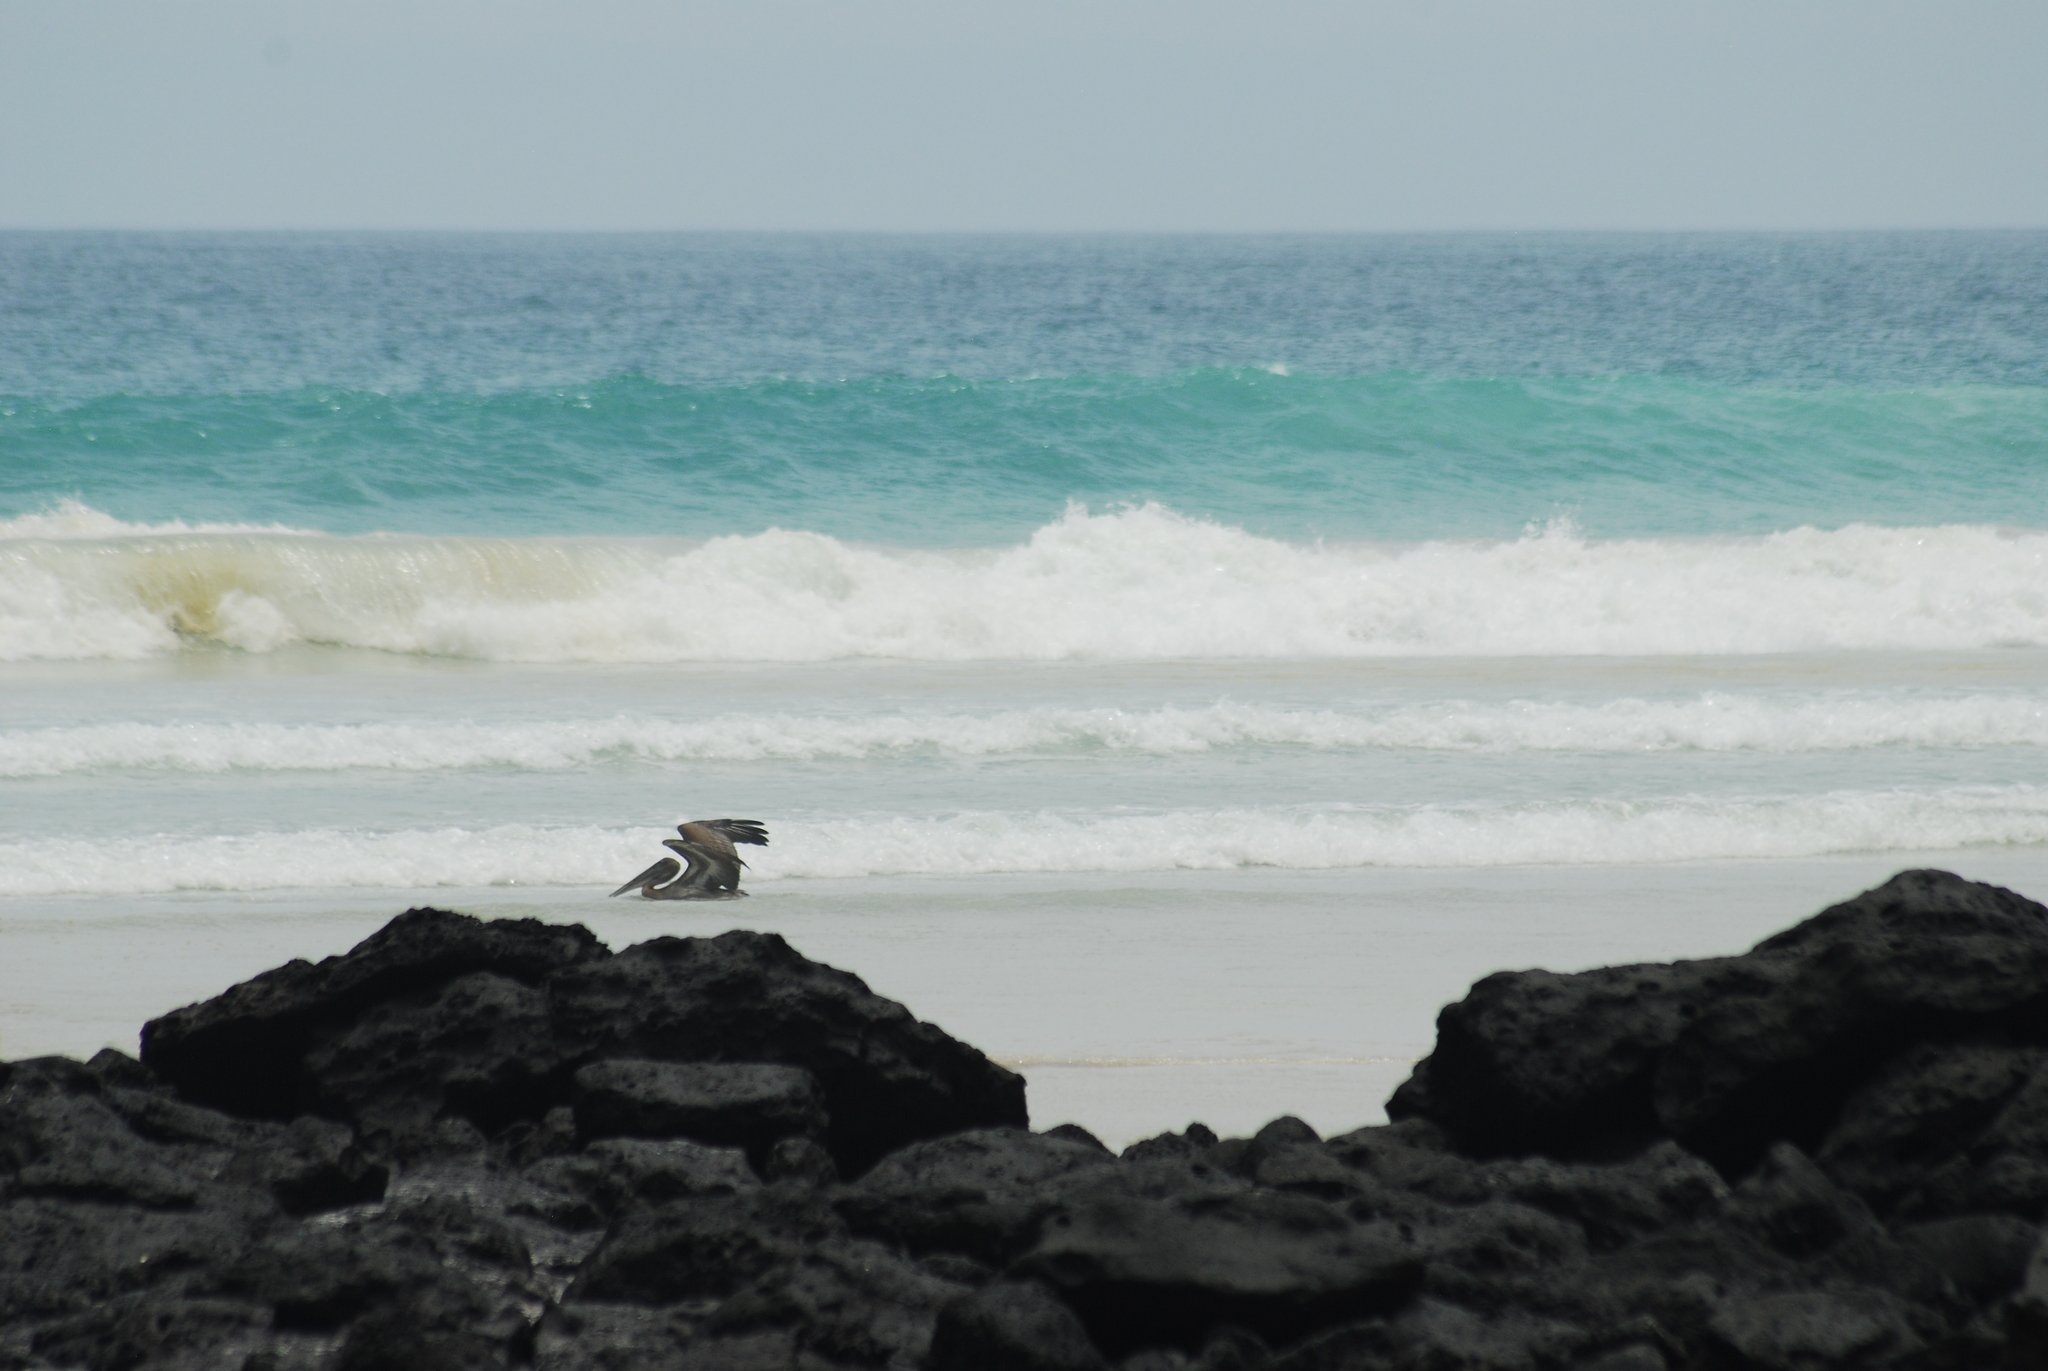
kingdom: Animalia
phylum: Chordata
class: Aves
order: Pelecaniformes
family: Pelecanidae
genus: Pelecanus
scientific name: Pelecanus occidentalis
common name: Brown pelican
